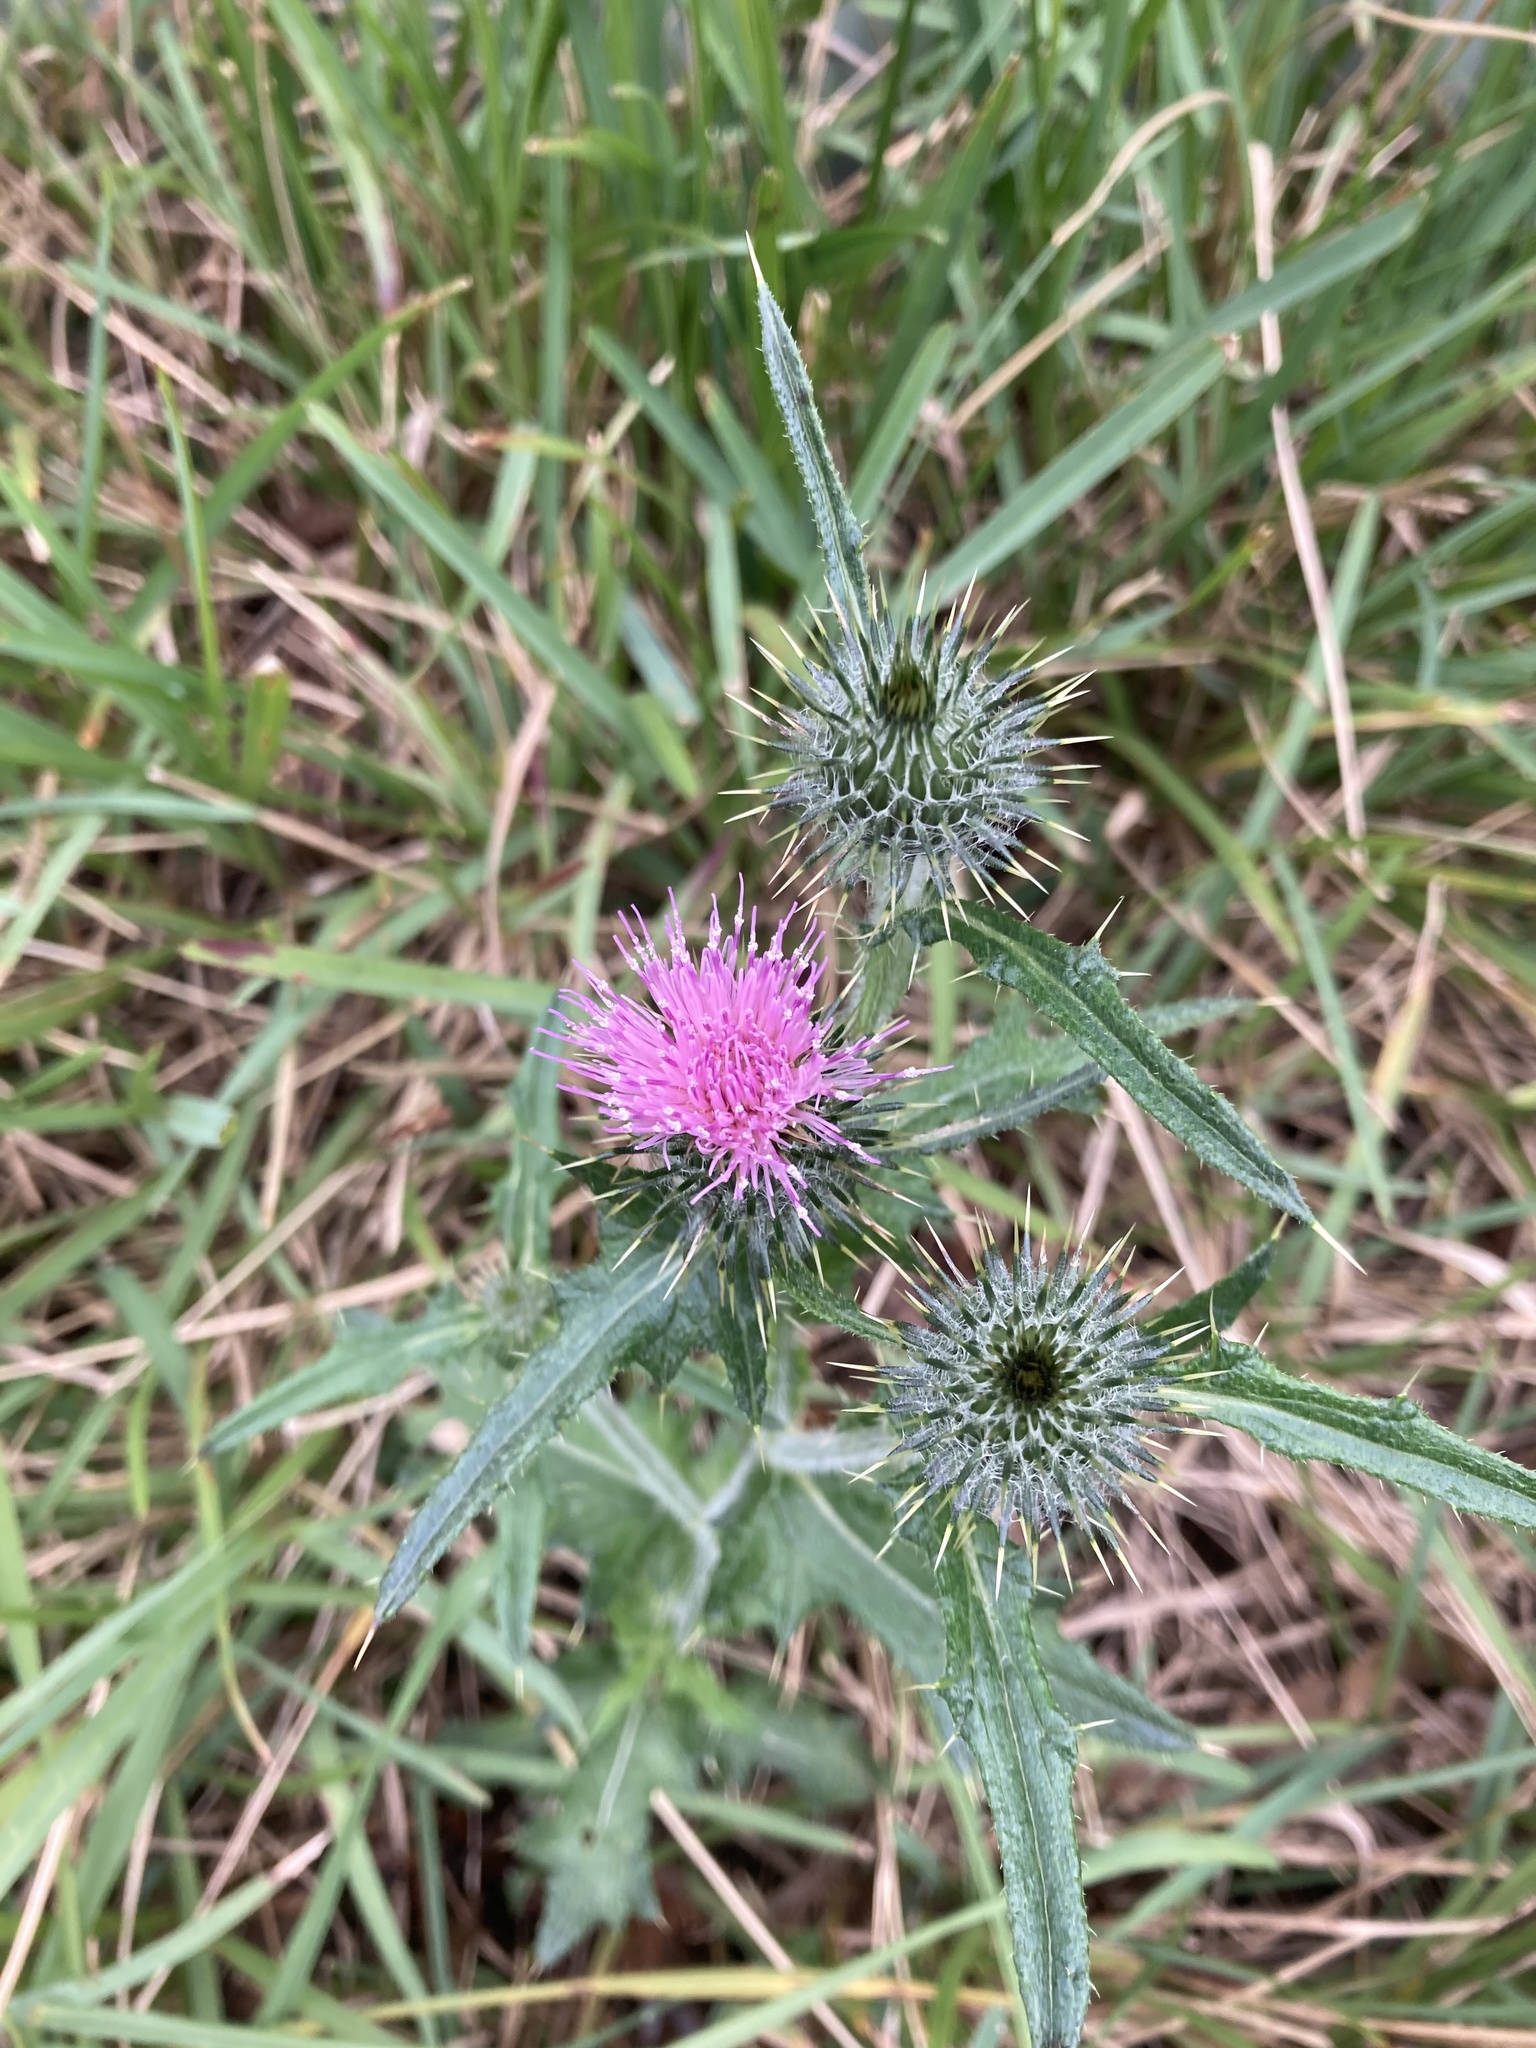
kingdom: Plantae
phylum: Tracheophyta
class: Magnoliopsida
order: Asterales
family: Asteraceae
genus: Cirsium
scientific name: Cirsium vulgare
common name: Bull thistle
